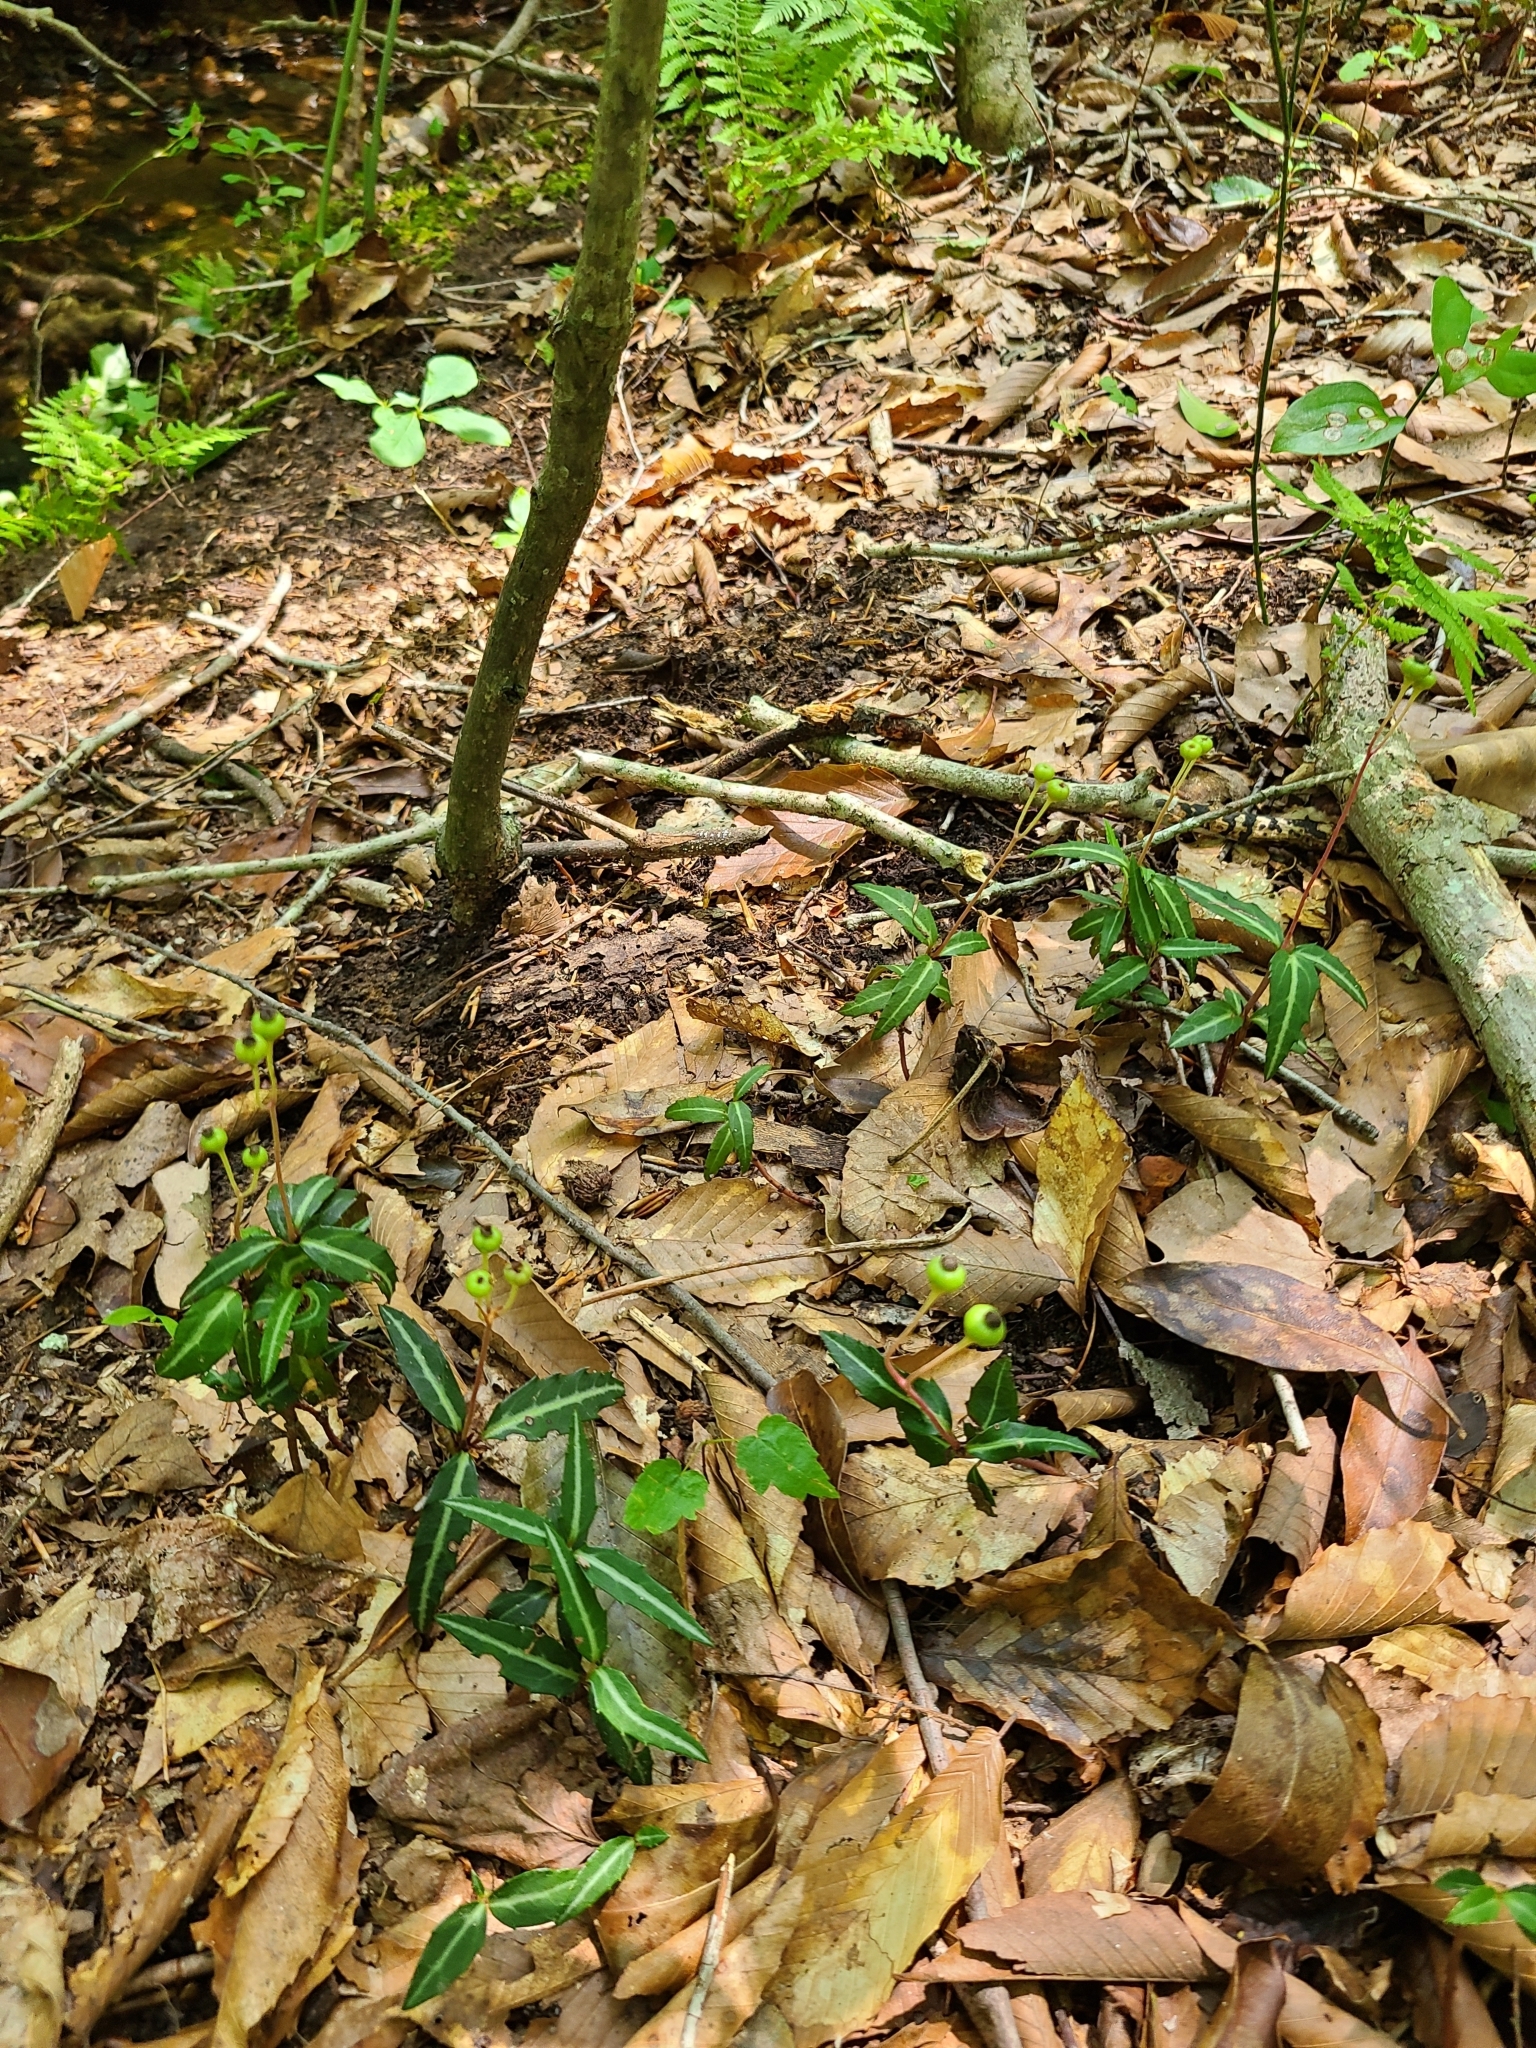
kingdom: Plantae
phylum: Tracheophyta
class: Magnoliopsida
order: Ericales
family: Ericaceae
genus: Chimaphila
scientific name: Chimaphila maculata
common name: Spotted pipsissewa
